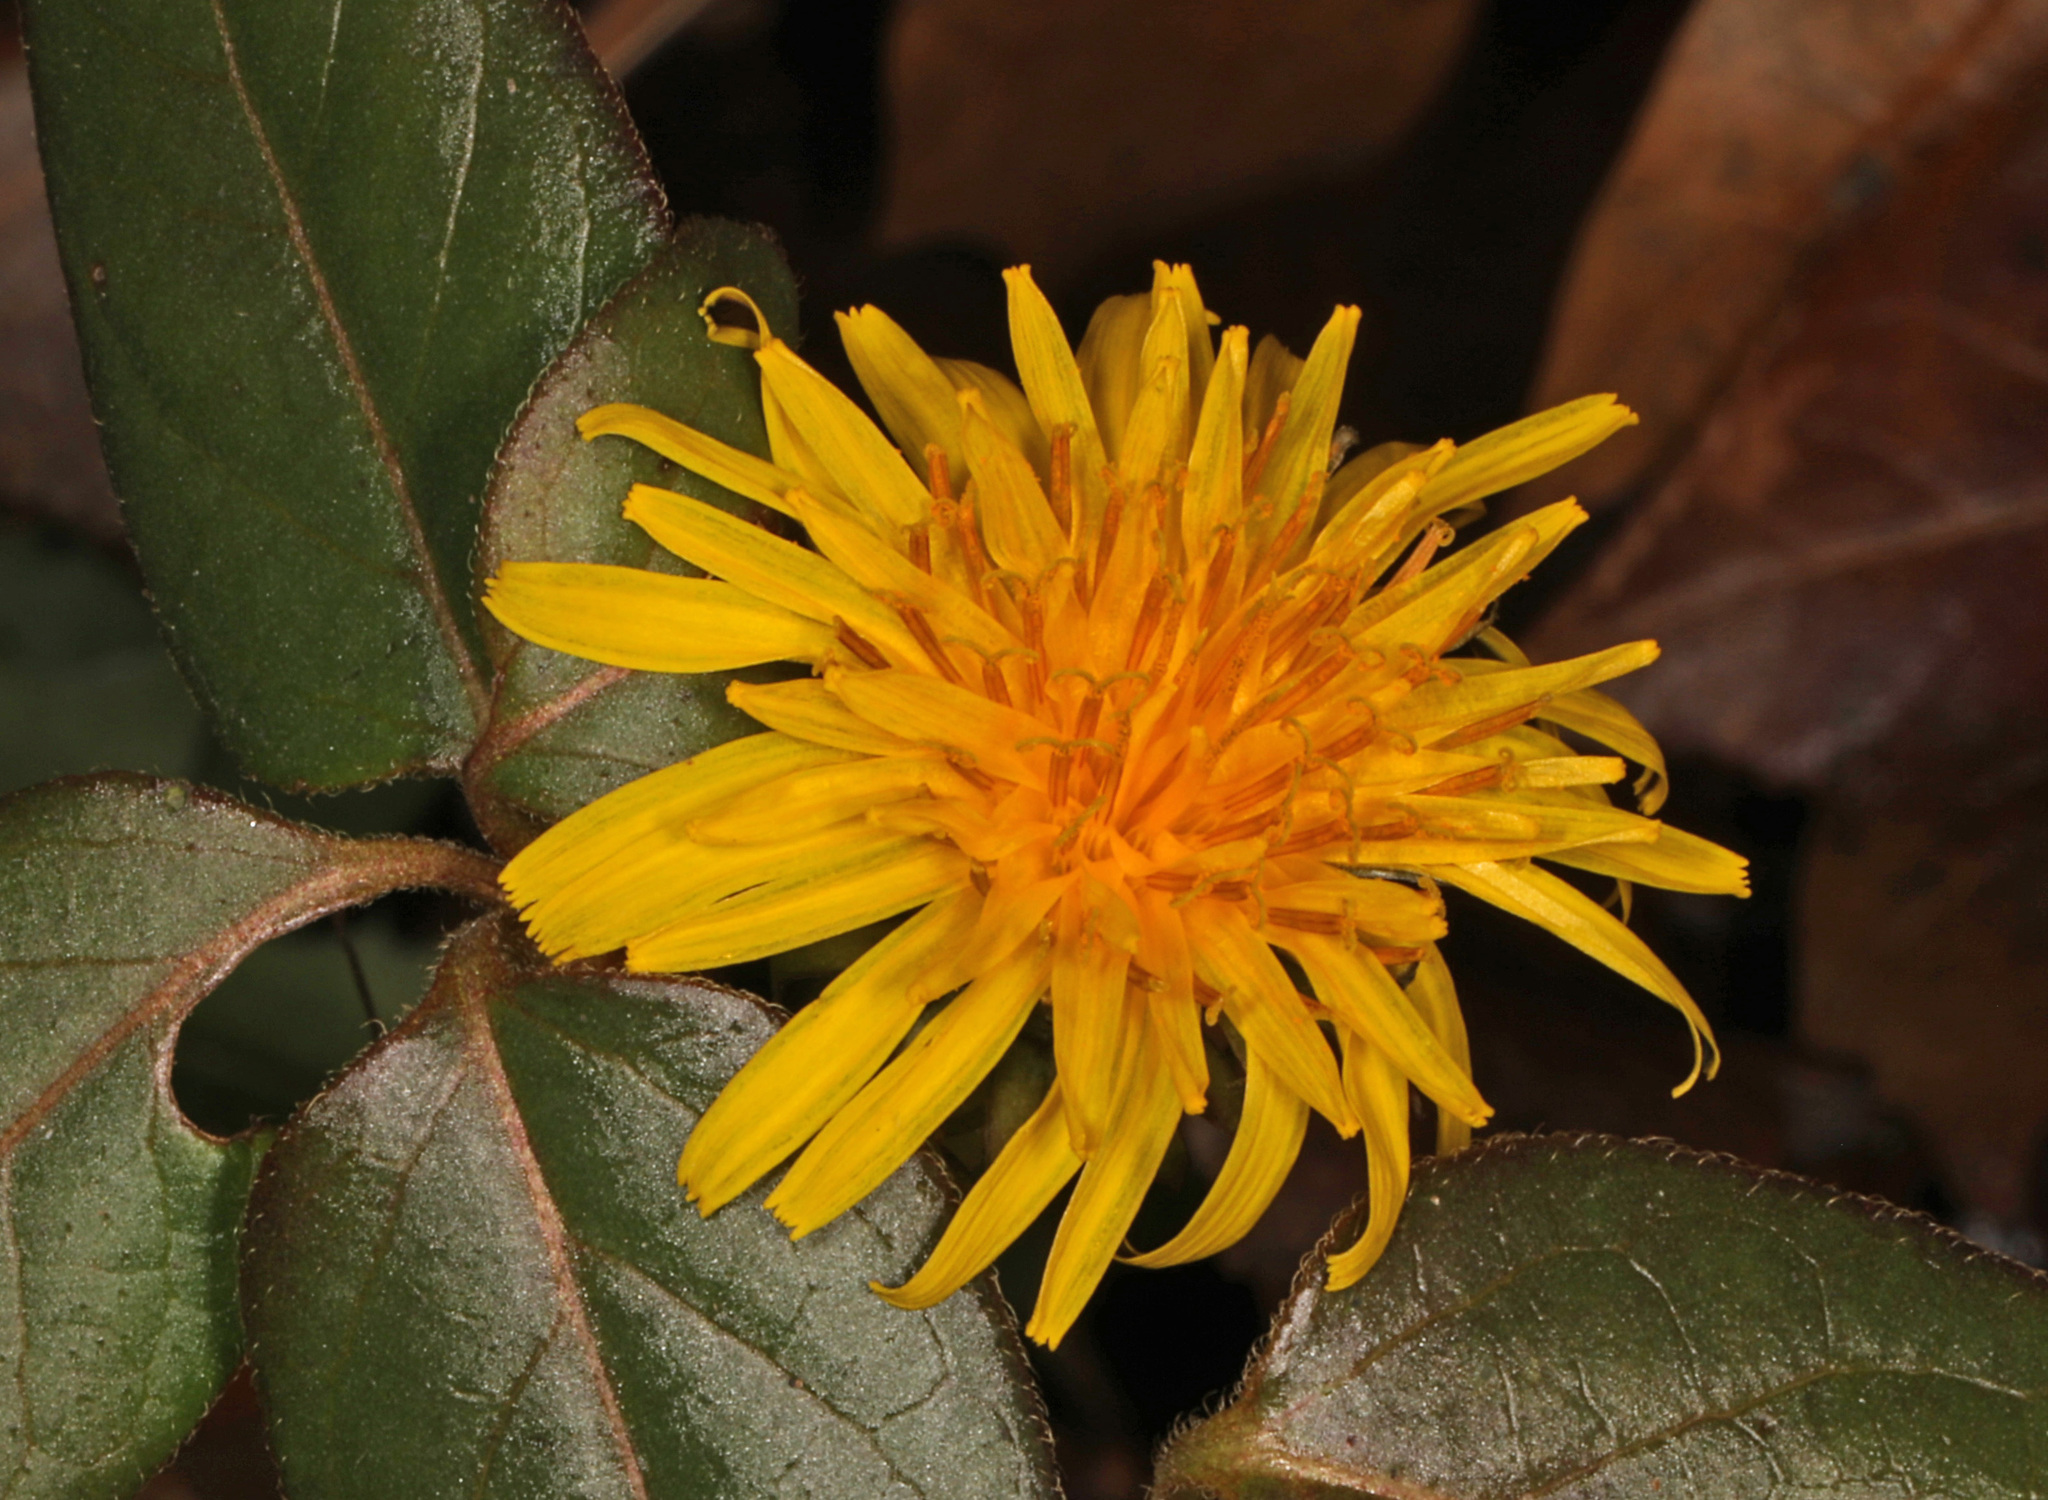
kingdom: Plantae
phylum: Tracheophyta
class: Magnoliopsida
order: Asterales
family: Asteraceae
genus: Taraxacum
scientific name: Taraxacum officinale
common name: Common dandelion
